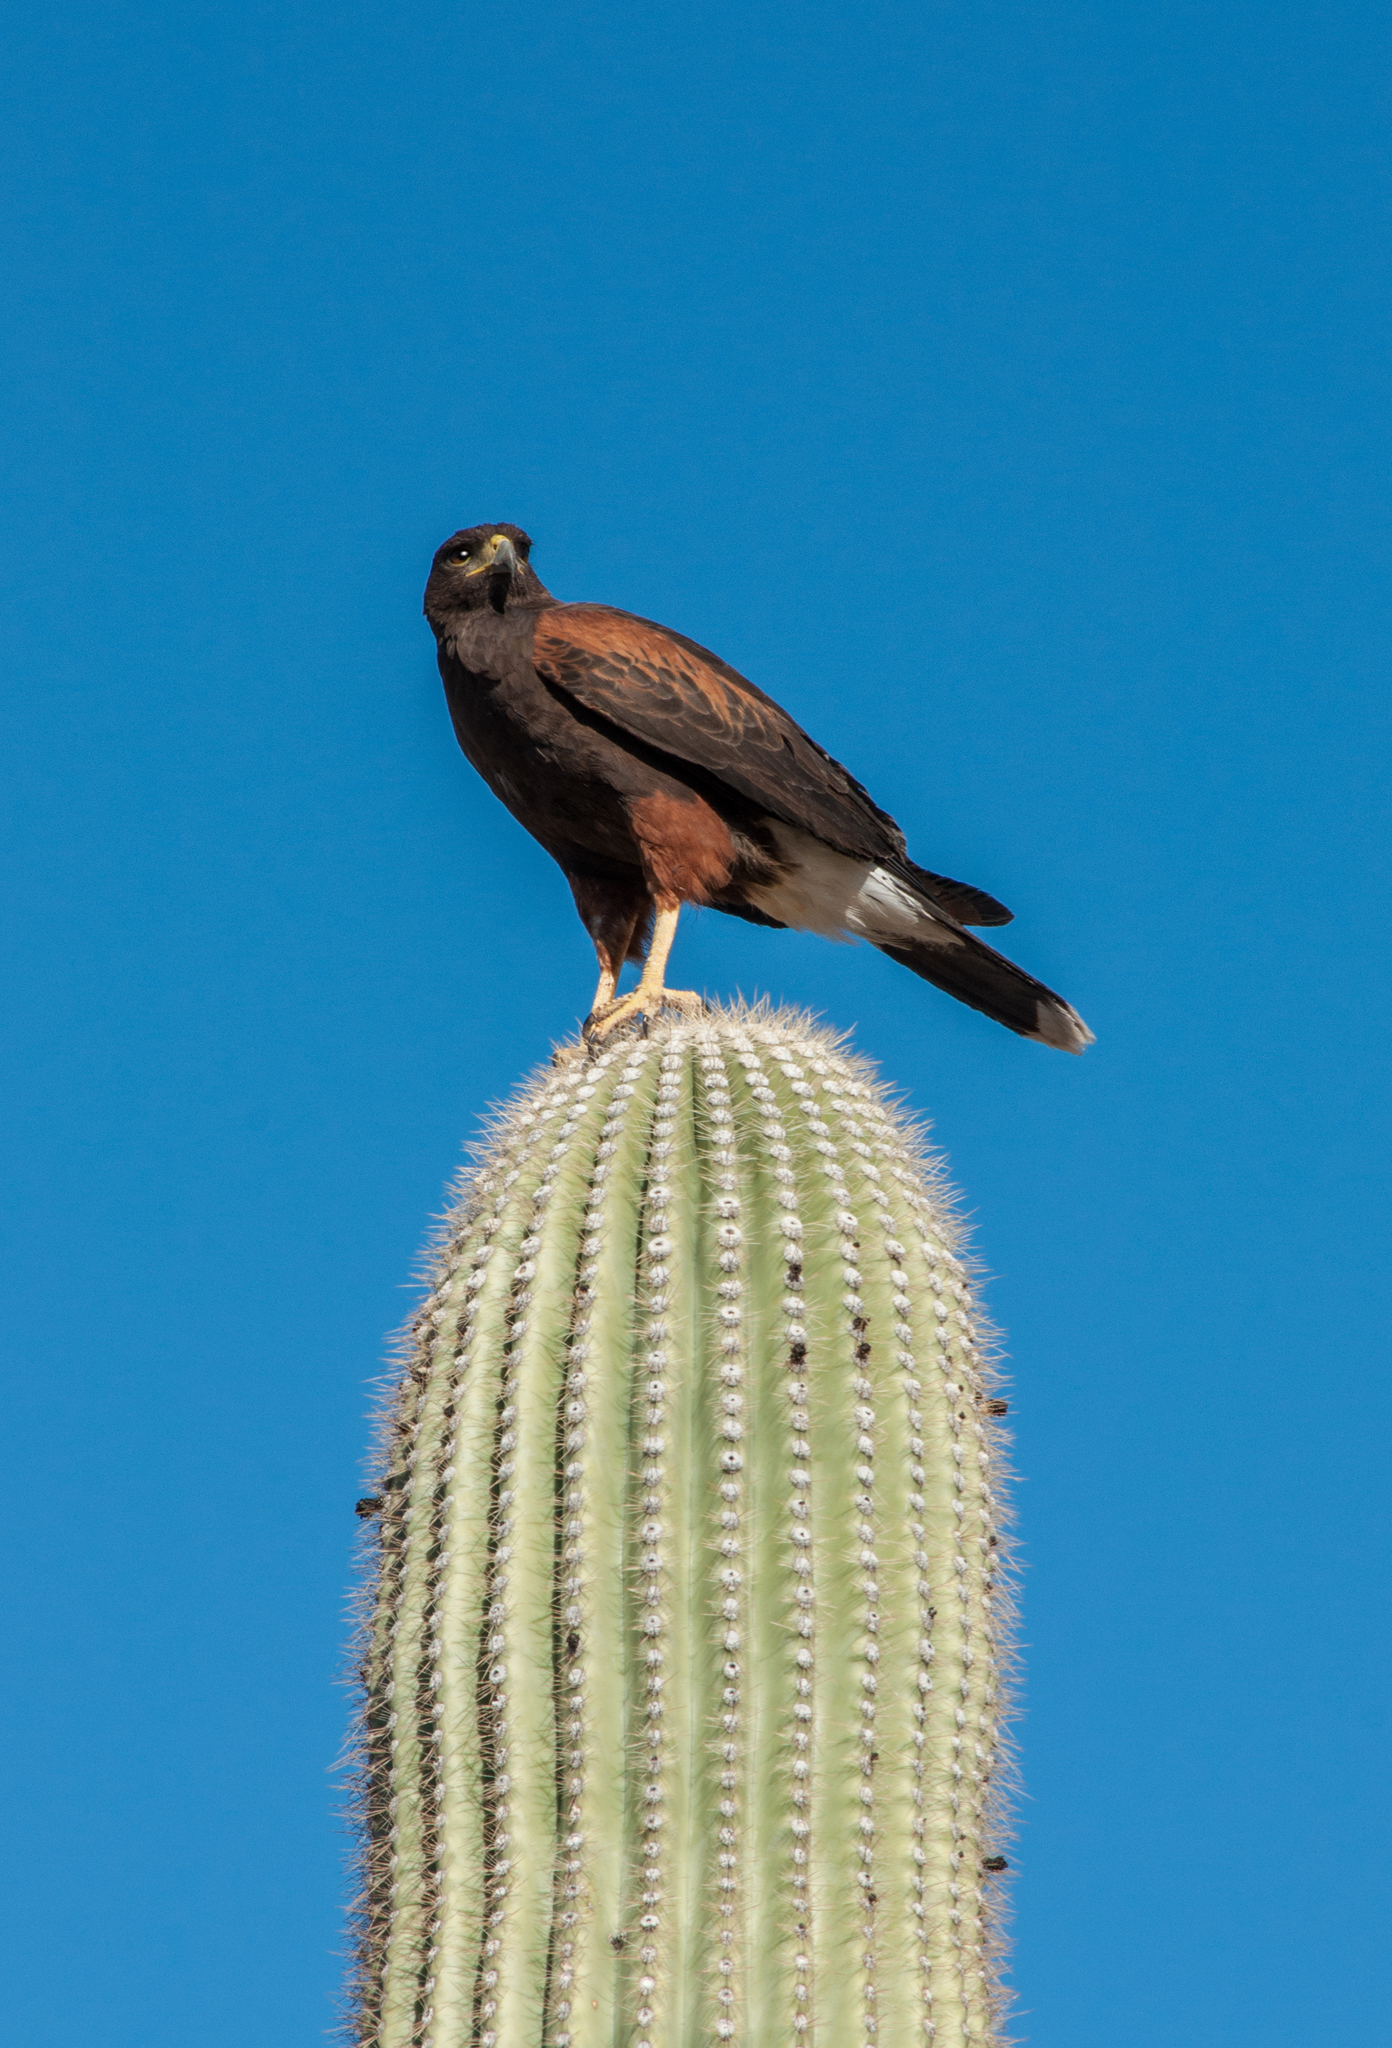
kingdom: Animalia
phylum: Chordata
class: Aves
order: Accipitriformes
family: Accipitridae
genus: Parabuteo
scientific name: Parabuteo unicinctus
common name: Harris's hawk
